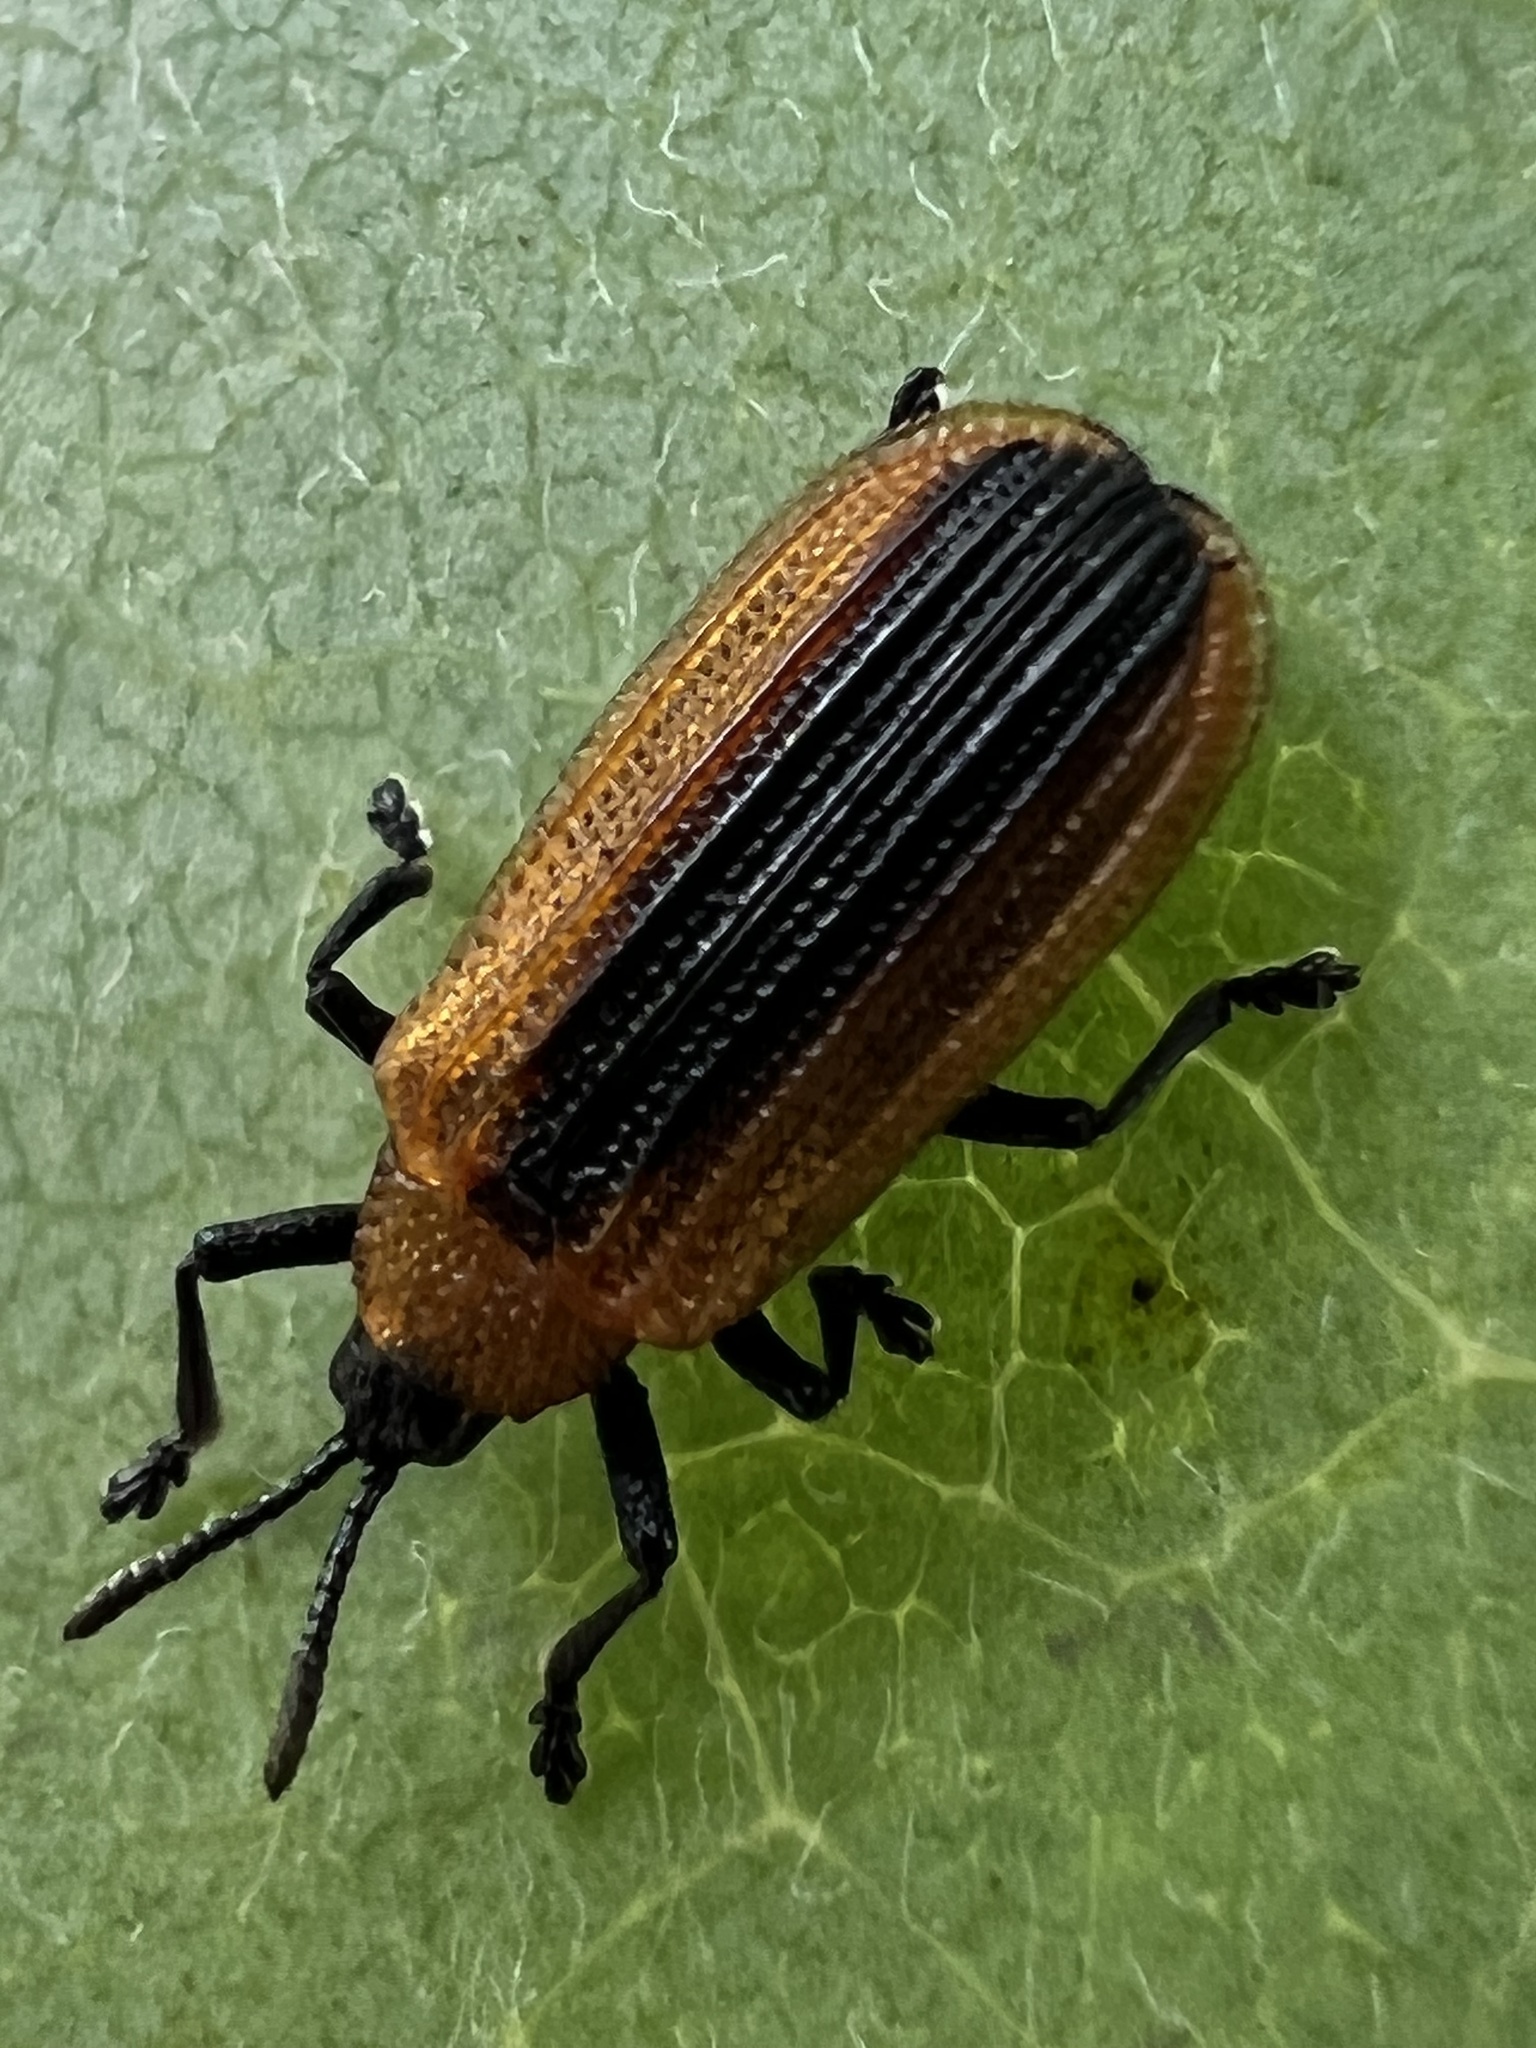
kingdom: Animalia
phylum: Arthropoda
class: Insecta
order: Coleoptera
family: Chrysomelidae
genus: Odontota
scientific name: Odontota dorsalis
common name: Locust leaf-miner beetle
